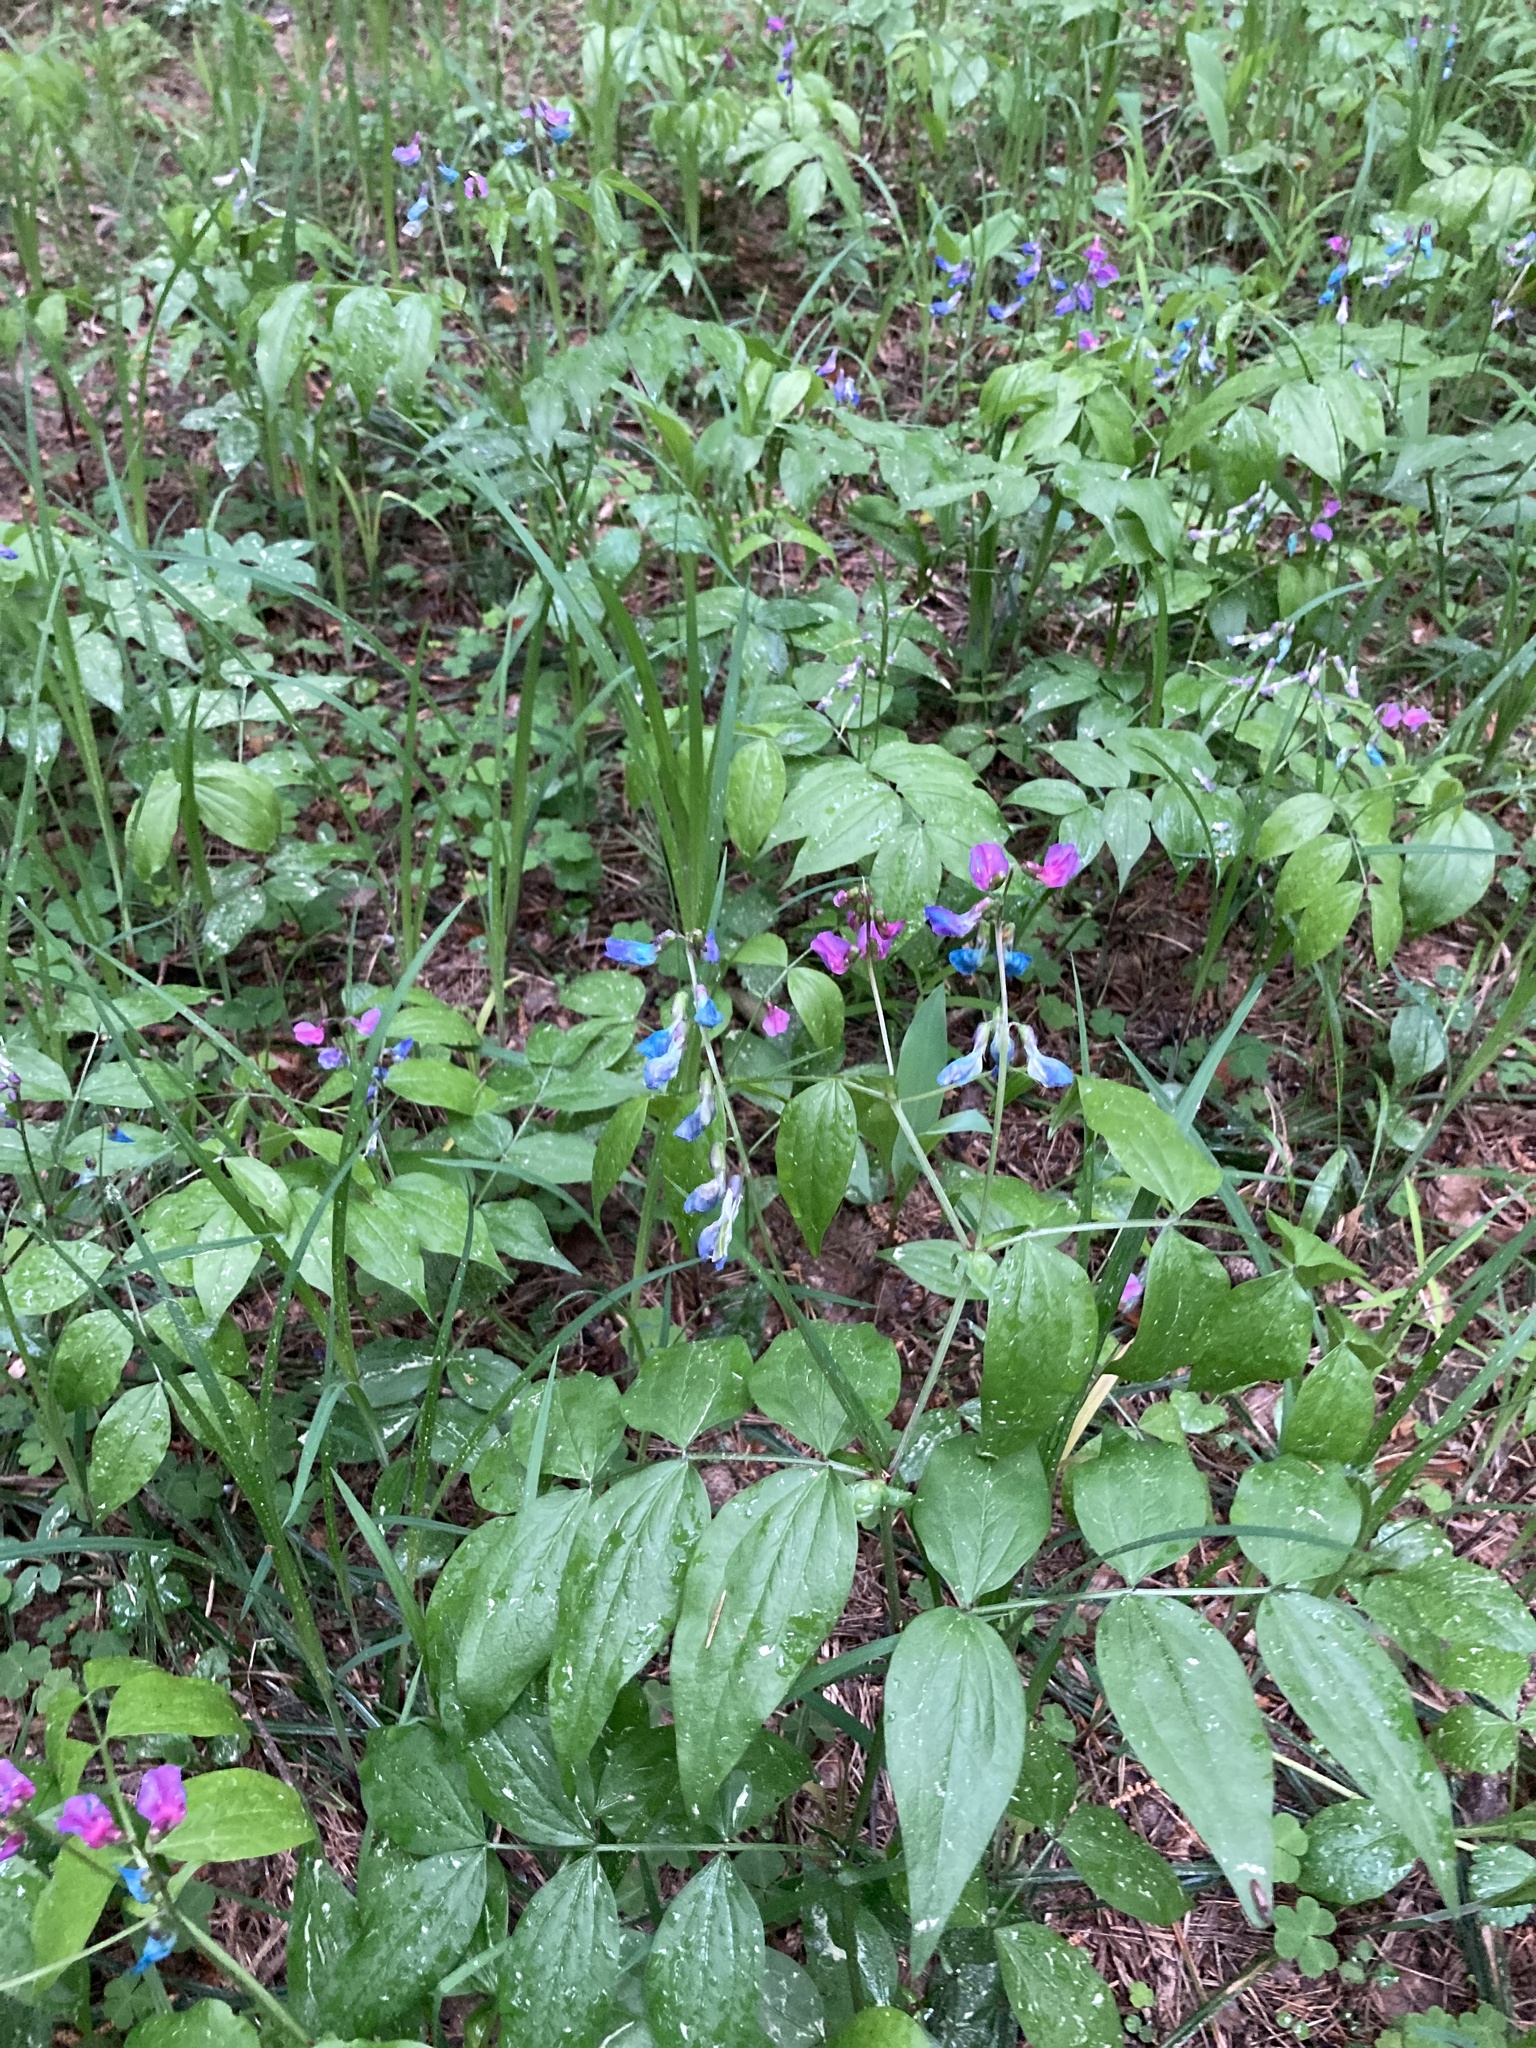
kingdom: Plantae
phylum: Tracheophyta
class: Magnoliopsida
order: Fabales
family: Fabaceae
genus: Lathyrus
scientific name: Lathyrus vernus
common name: Spring pea
